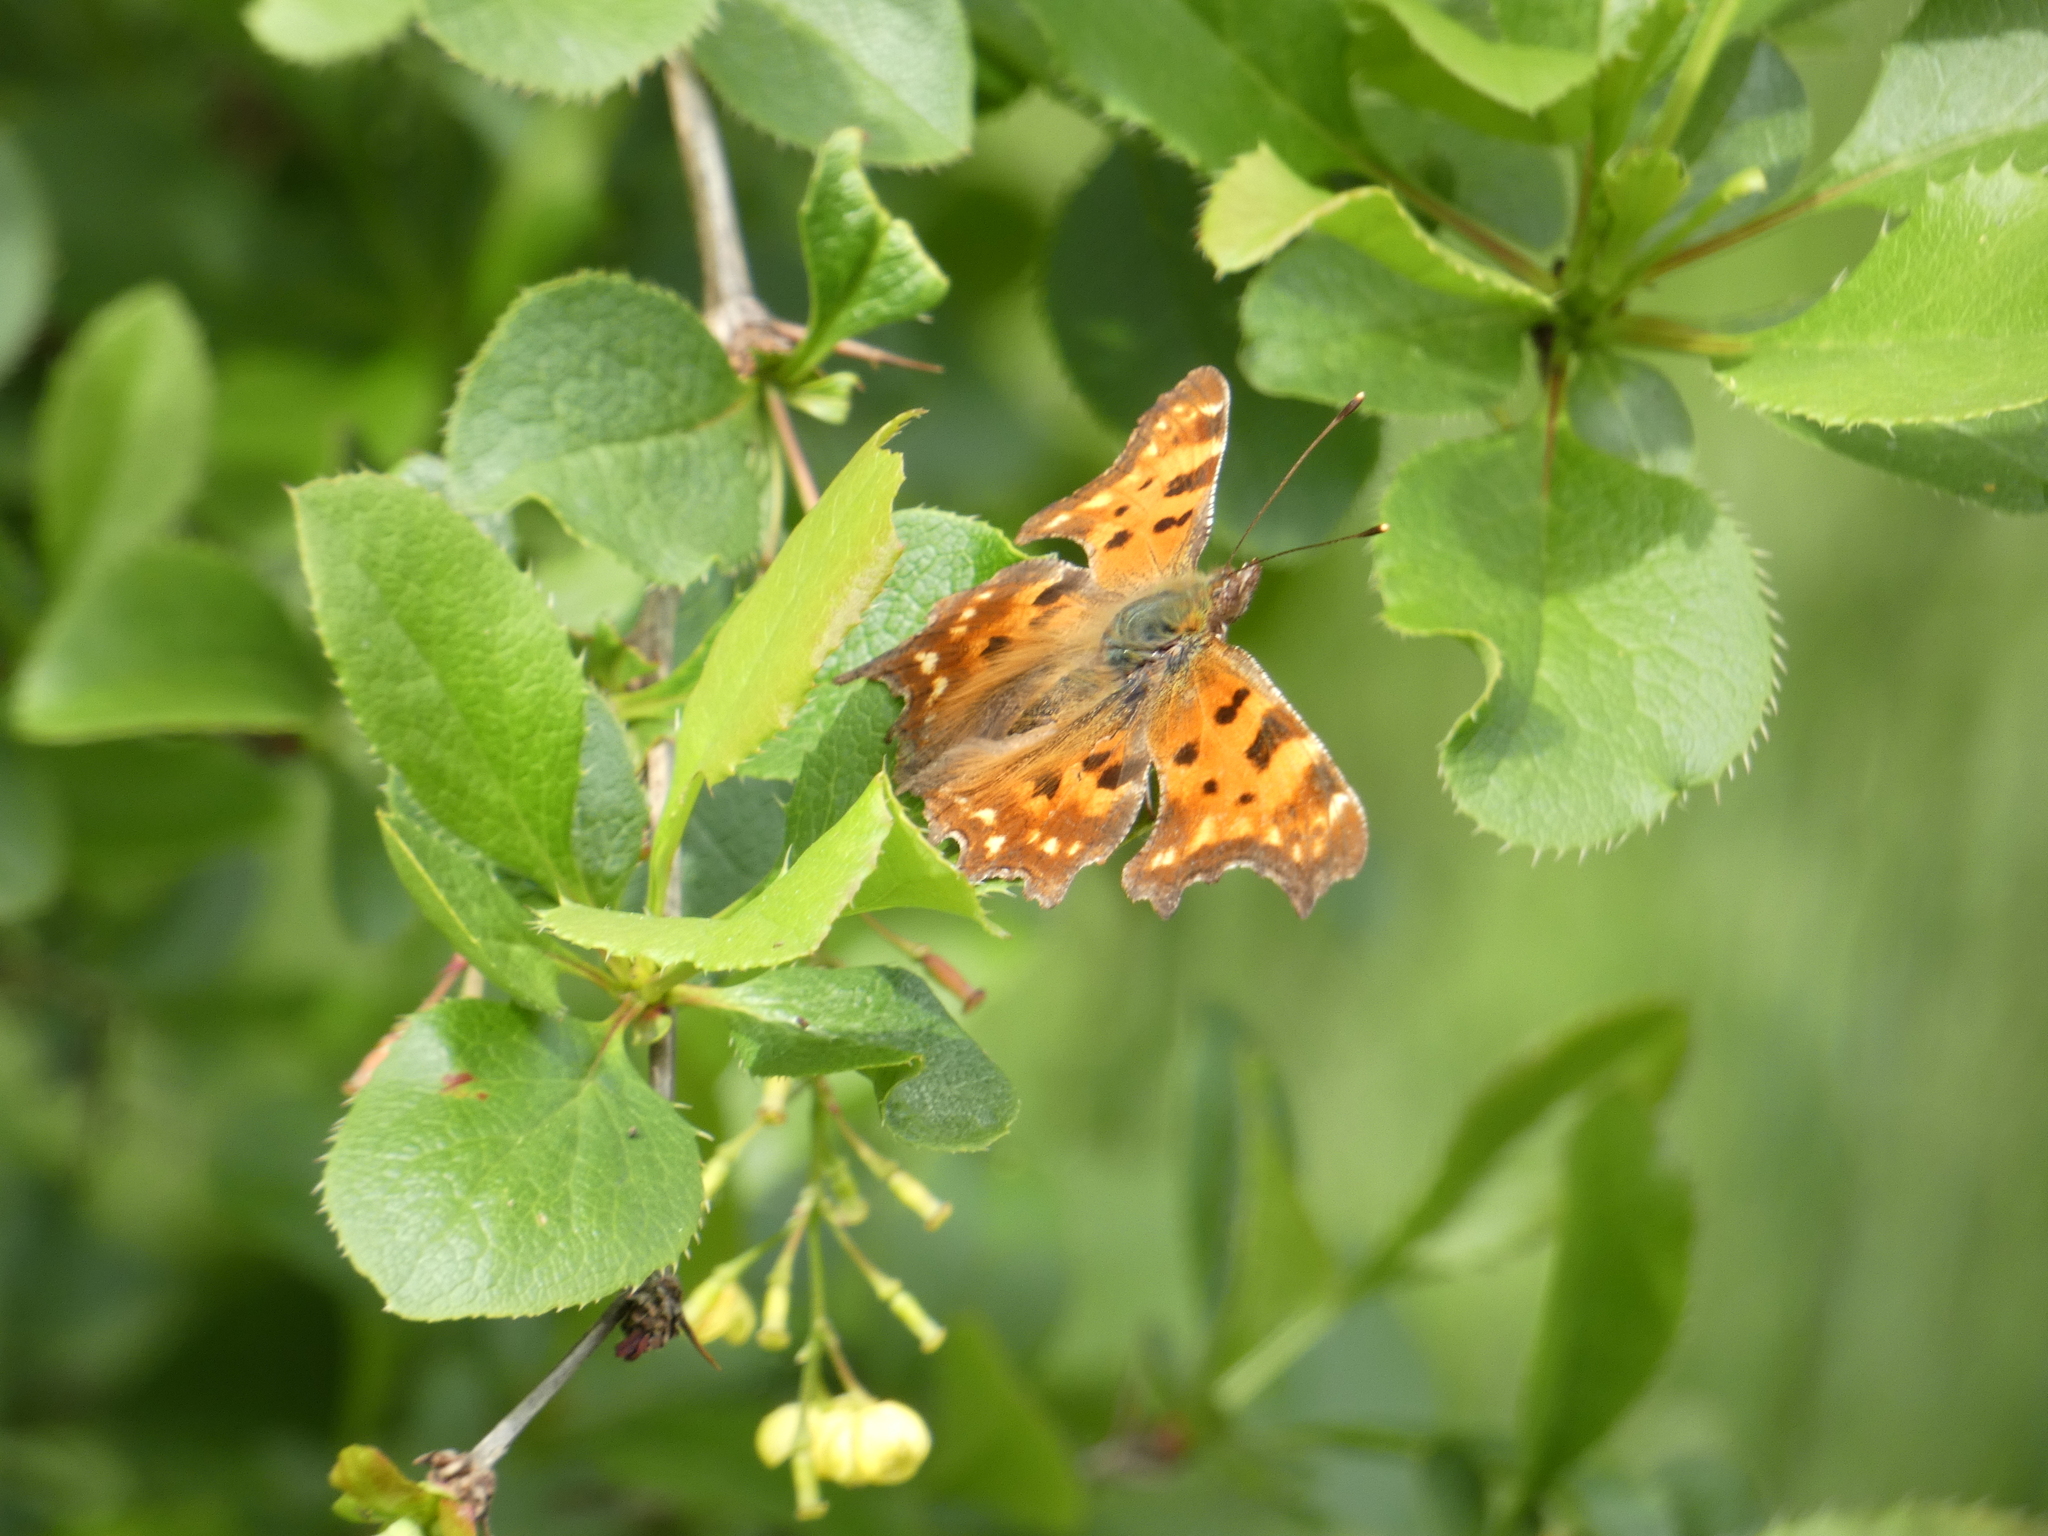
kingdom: Animalia
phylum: Arthropoda
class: Insecta
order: Lepidoptera
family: Nymphalidae
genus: Polygonia
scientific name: Polygonia c-album
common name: Comma
